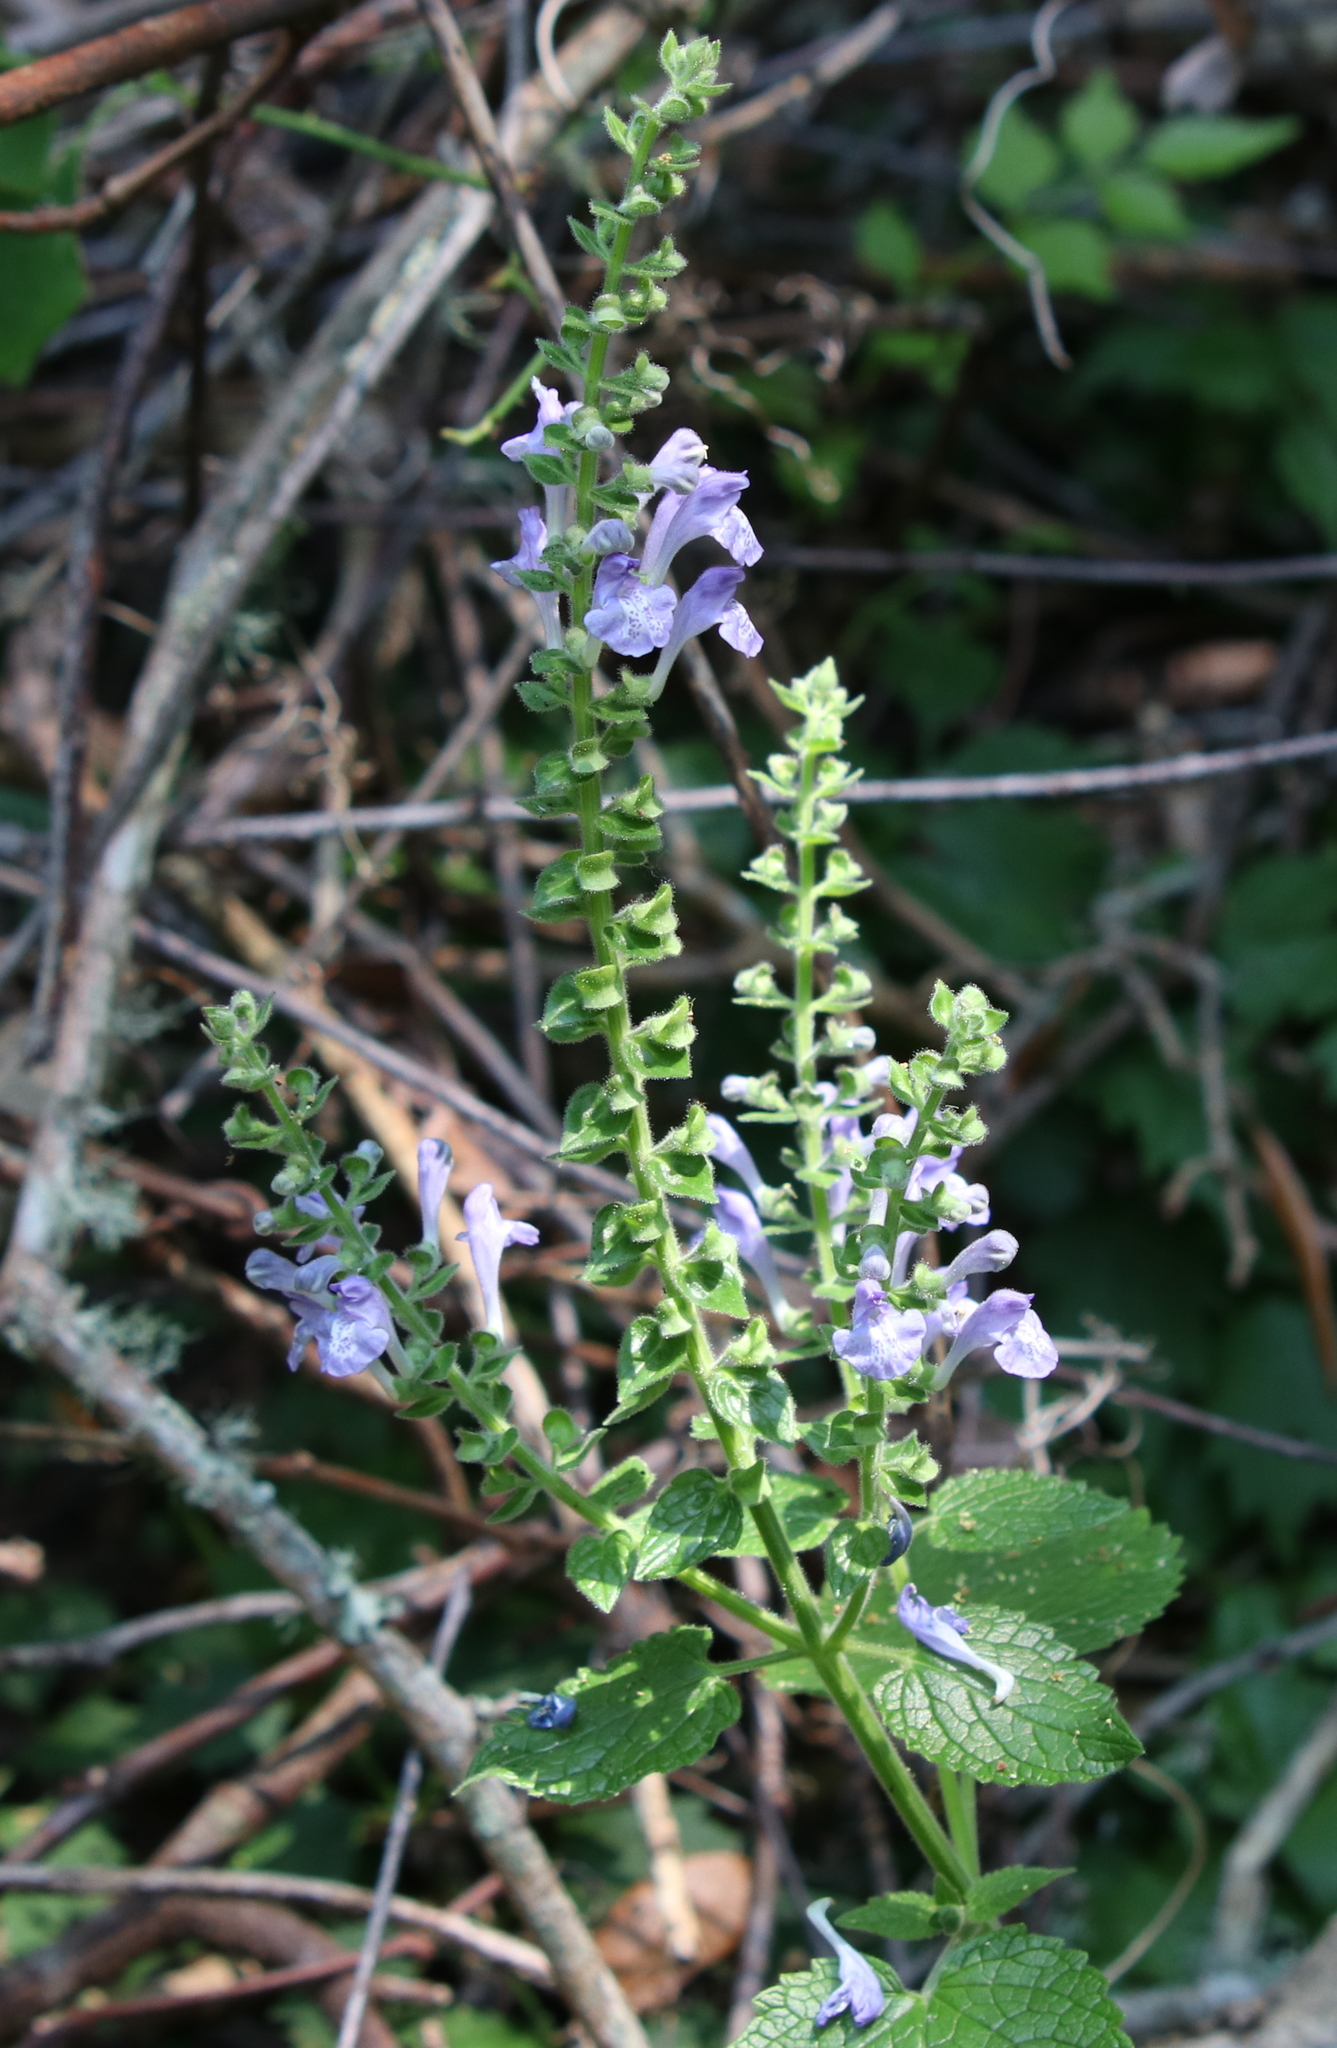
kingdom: Plantae
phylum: Tracheophyta
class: Magnoliopsida
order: Lamiales
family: Lamiaceae
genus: Scutellaria
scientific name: Scutellaria ovata
